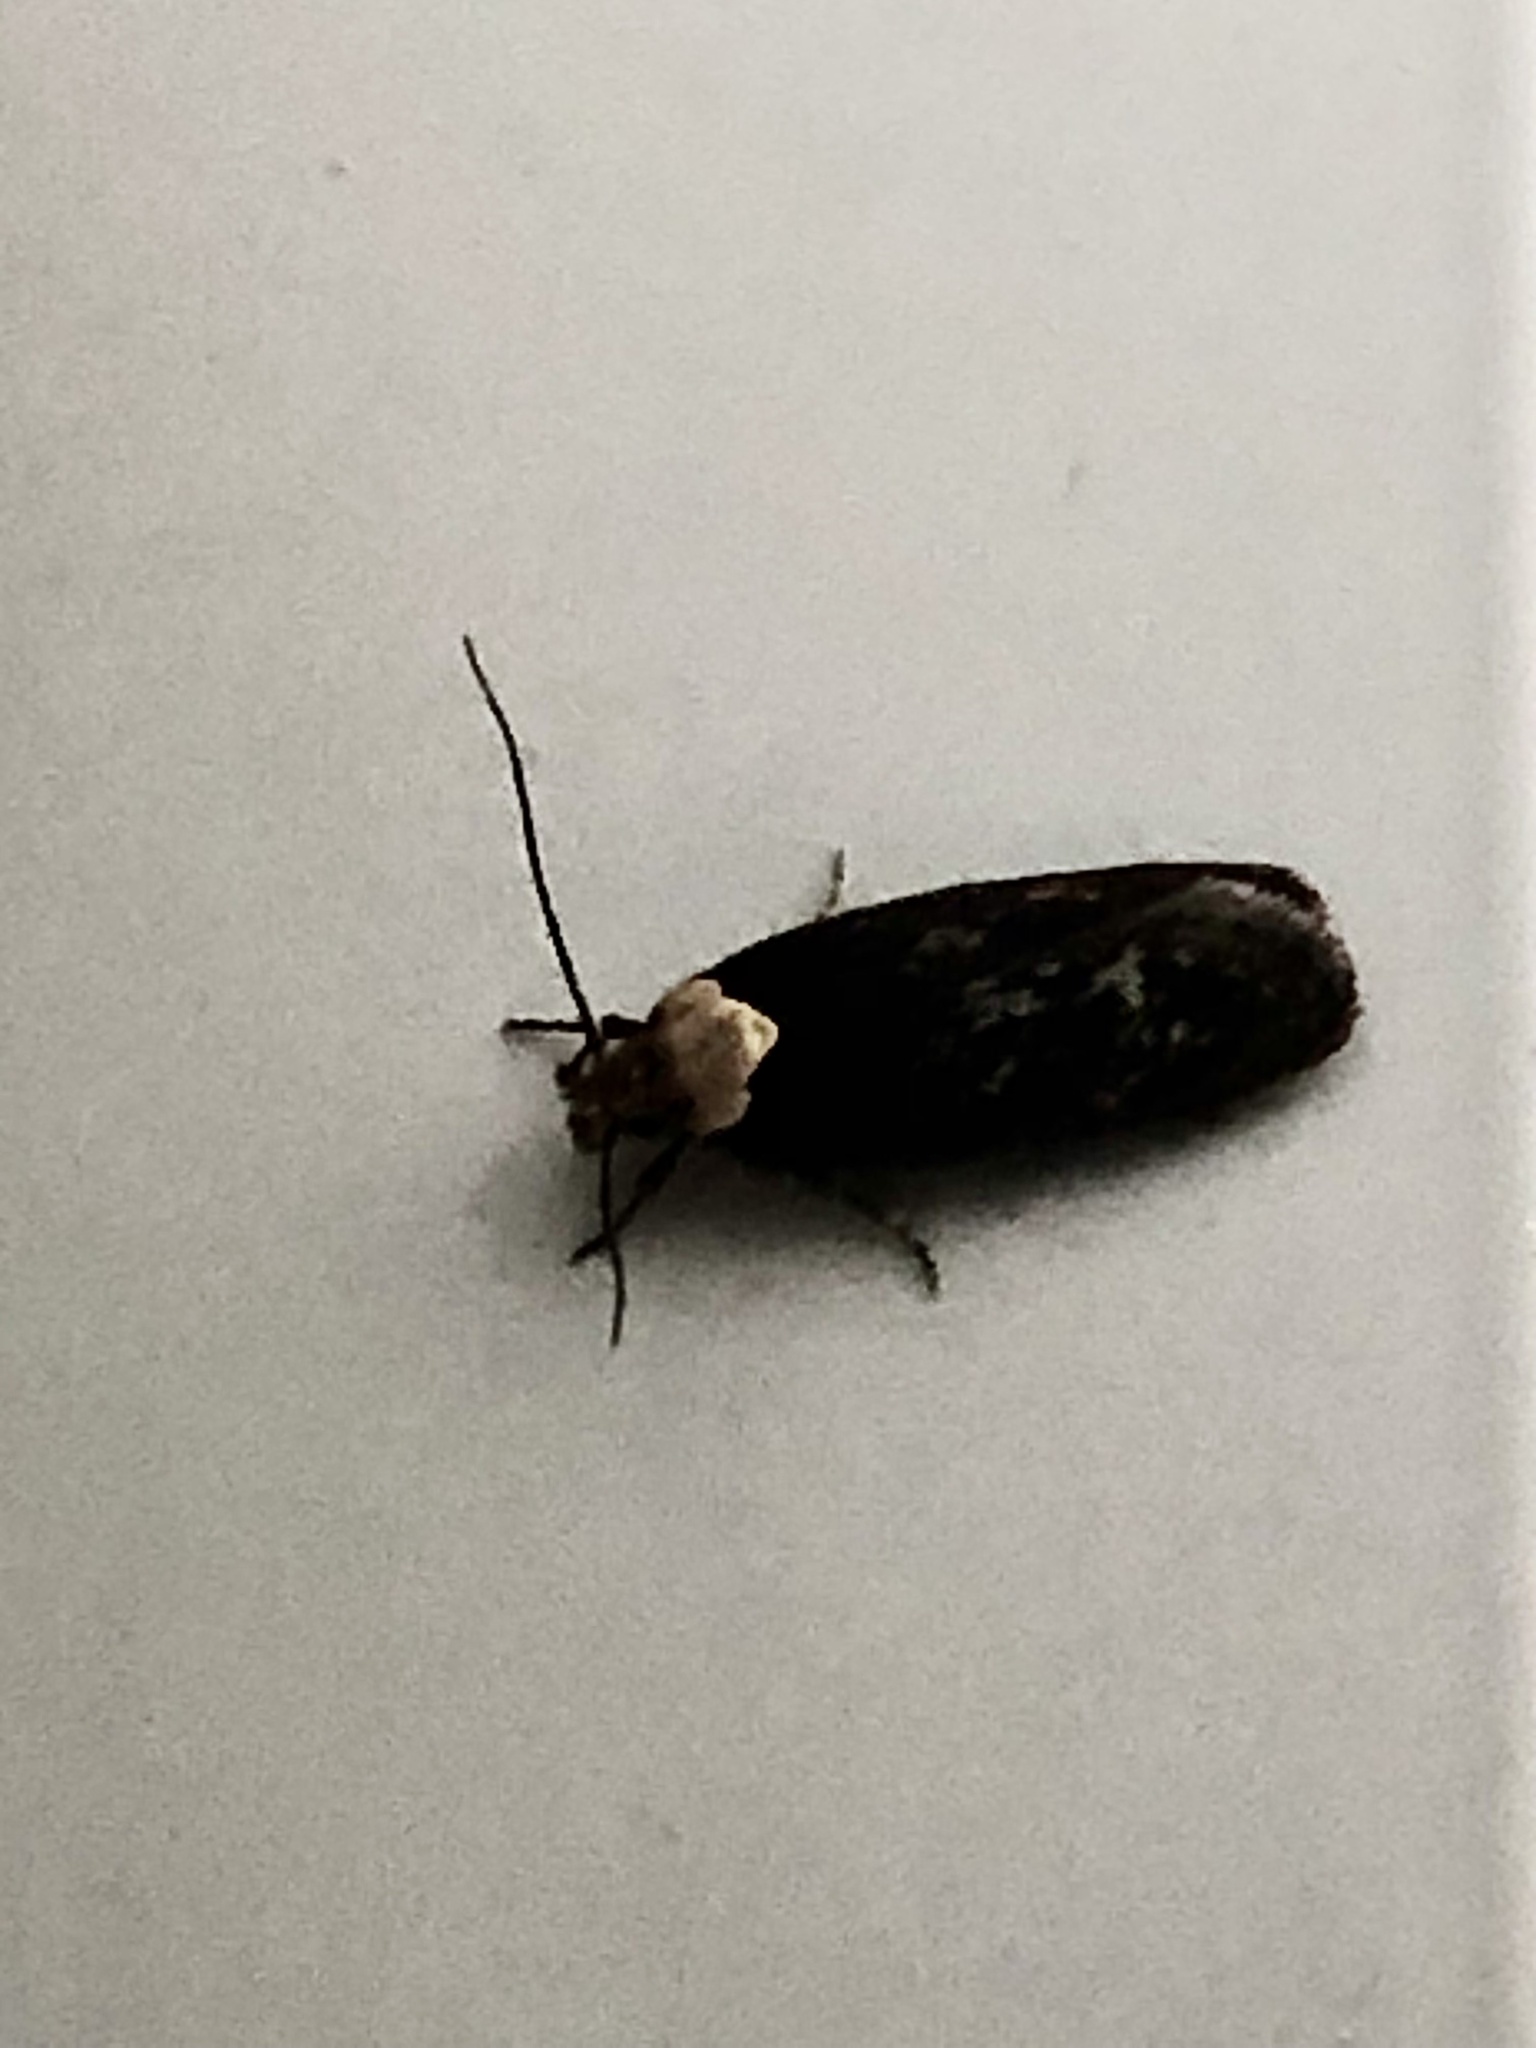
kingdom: Animalia
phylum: Arthropoda
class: Insecta
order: Lepidoptera
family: Depressariidae
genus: Depressaria
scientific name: Depressaria depressana
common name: Lost flat-body
